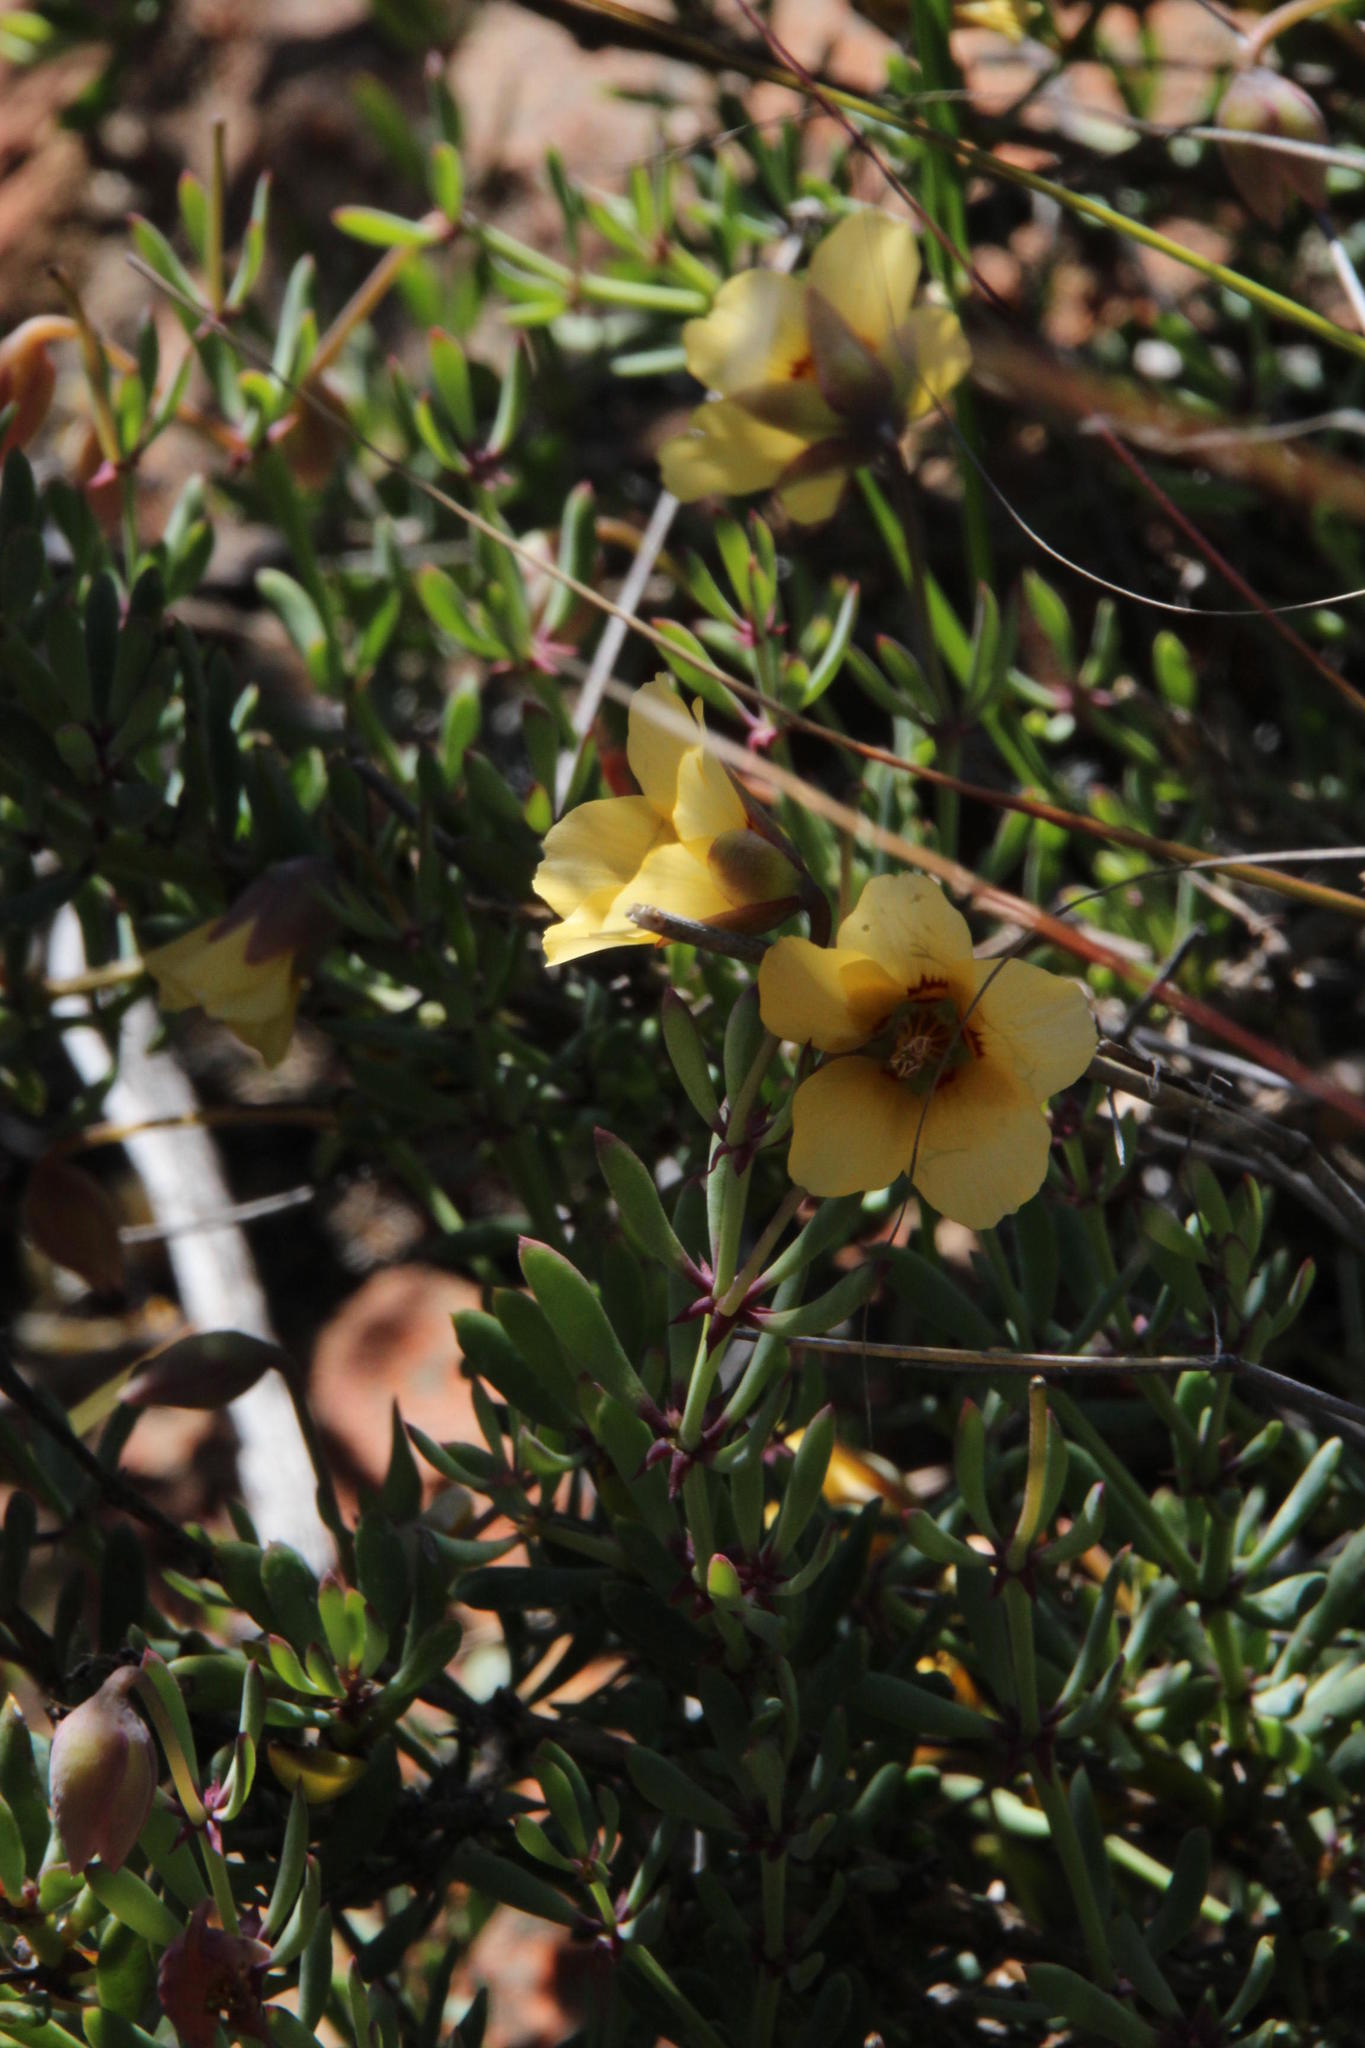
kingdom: Plantae
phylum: Tracheophyta
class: Magnoliopsida
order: Zygophyllales
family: Zygophyllaceae
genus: Roepera
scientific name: Roepera fulva
